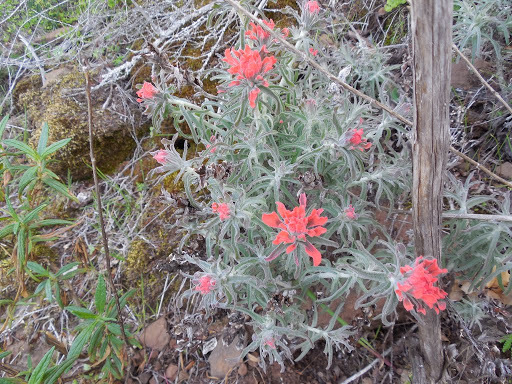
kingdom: Plantae
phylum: Tracheophyta
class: Magnoliopsida
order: Lamiales
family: Orobanchaceae
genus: Castilleja
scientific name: Castilleja foliolosa
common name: Woolly indian paintbrush
